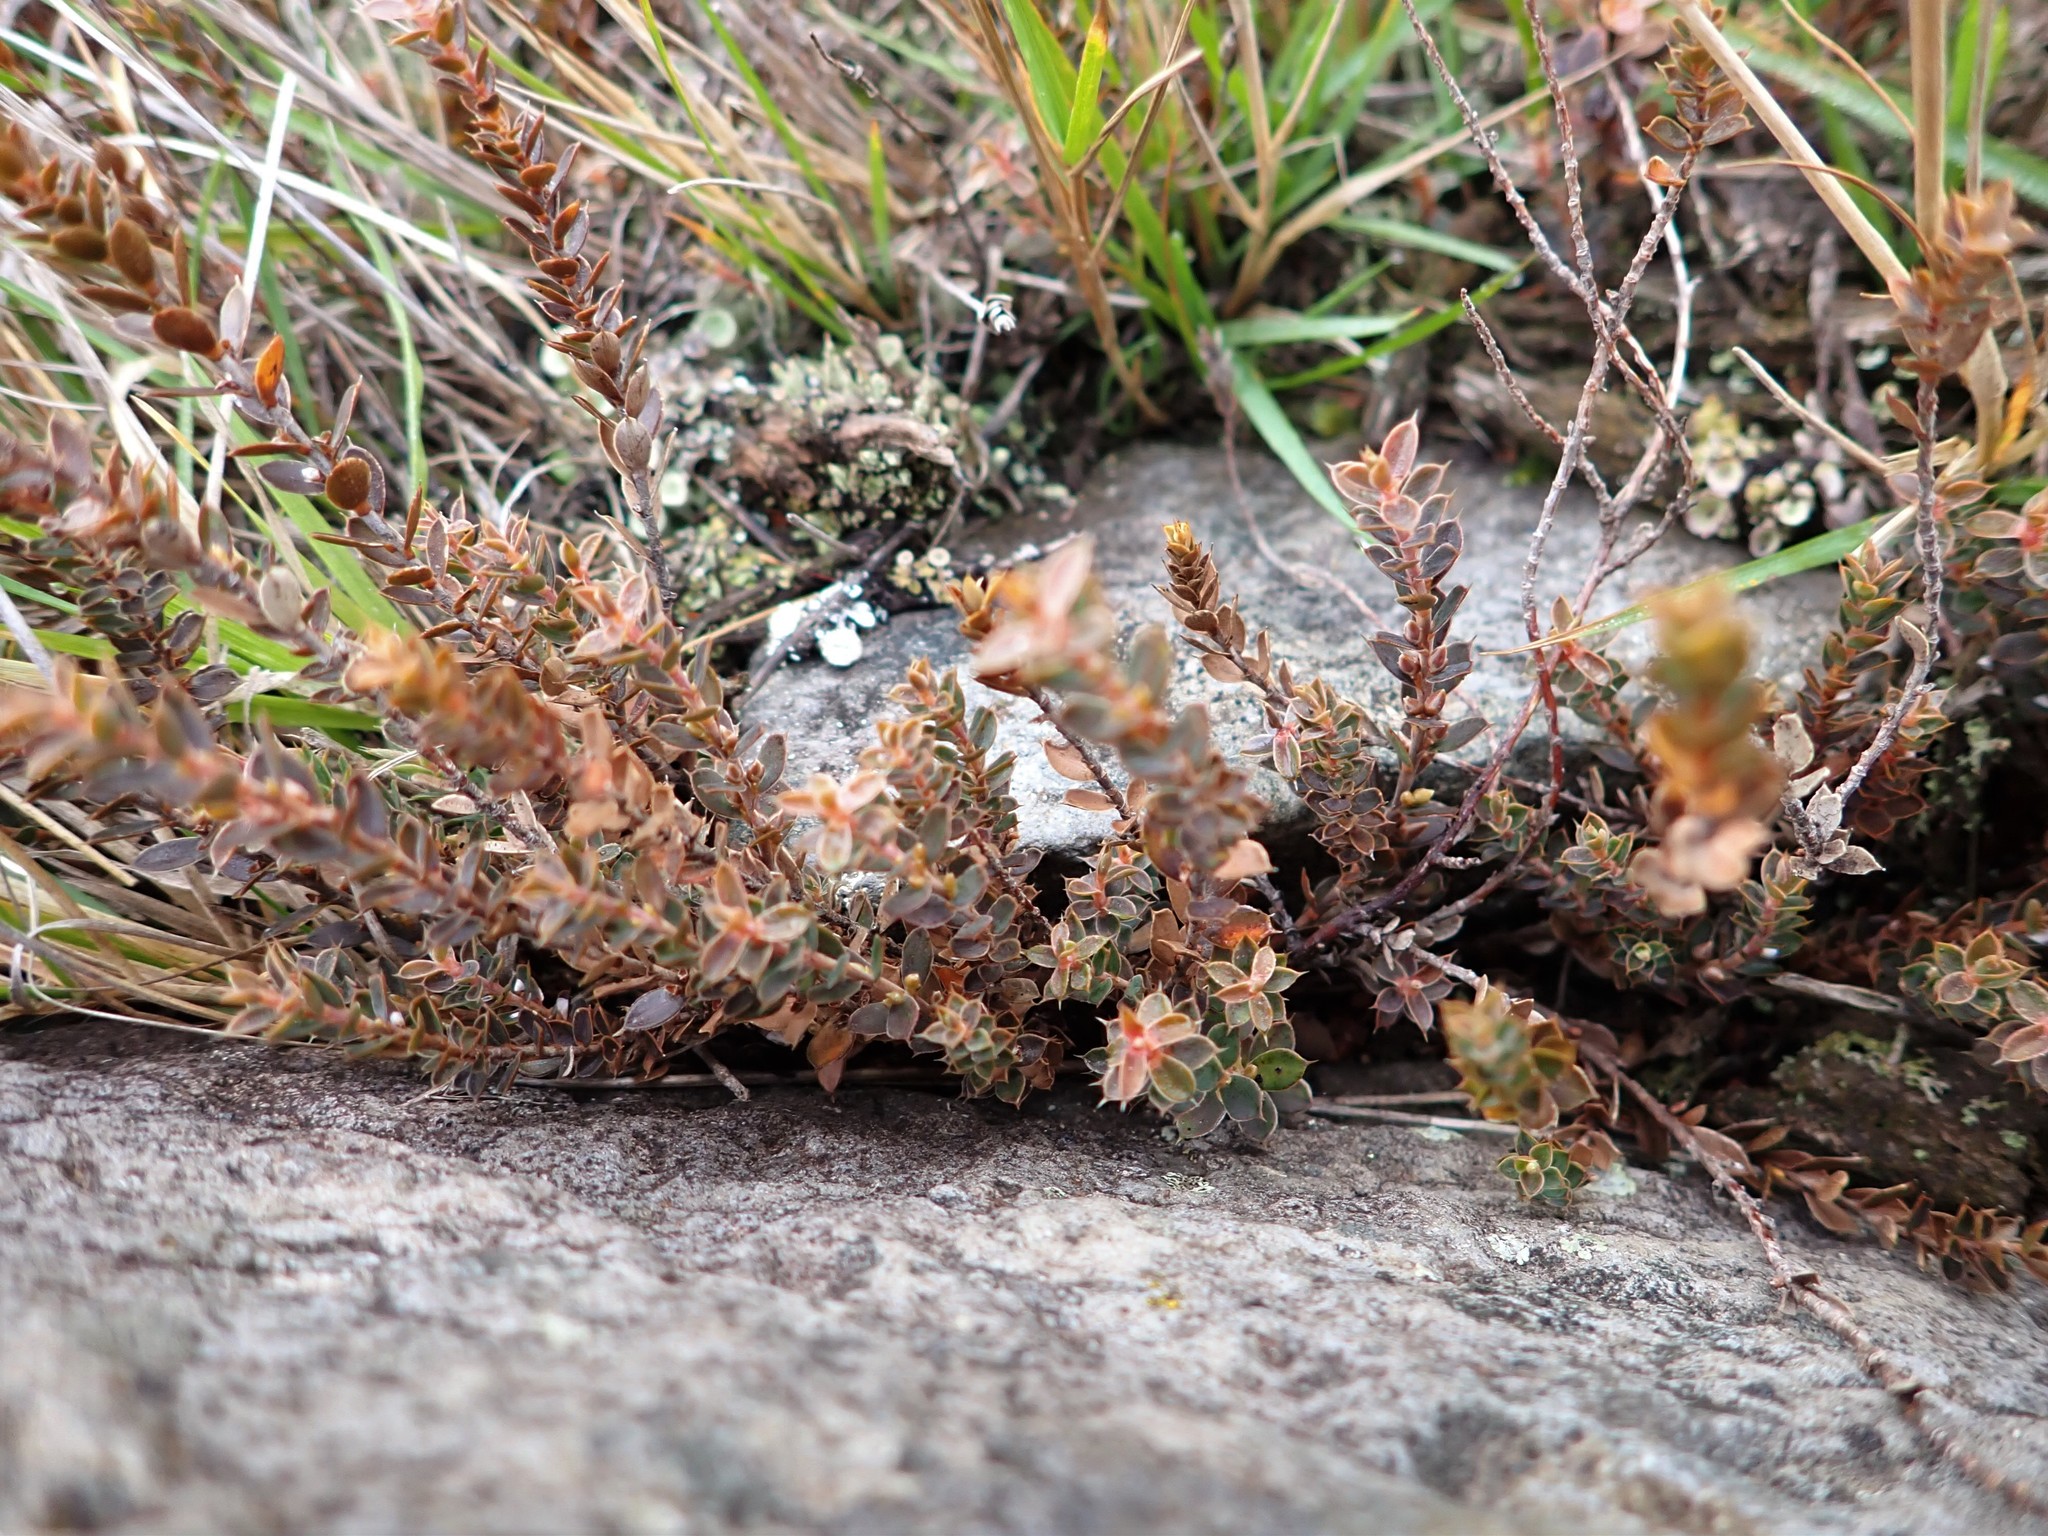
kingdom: Plantae
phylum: Tracheophyta
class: Magnoliopsida
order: Ericales
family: Ericaceae
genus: Styphelia
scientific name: Styphelia nesophila
